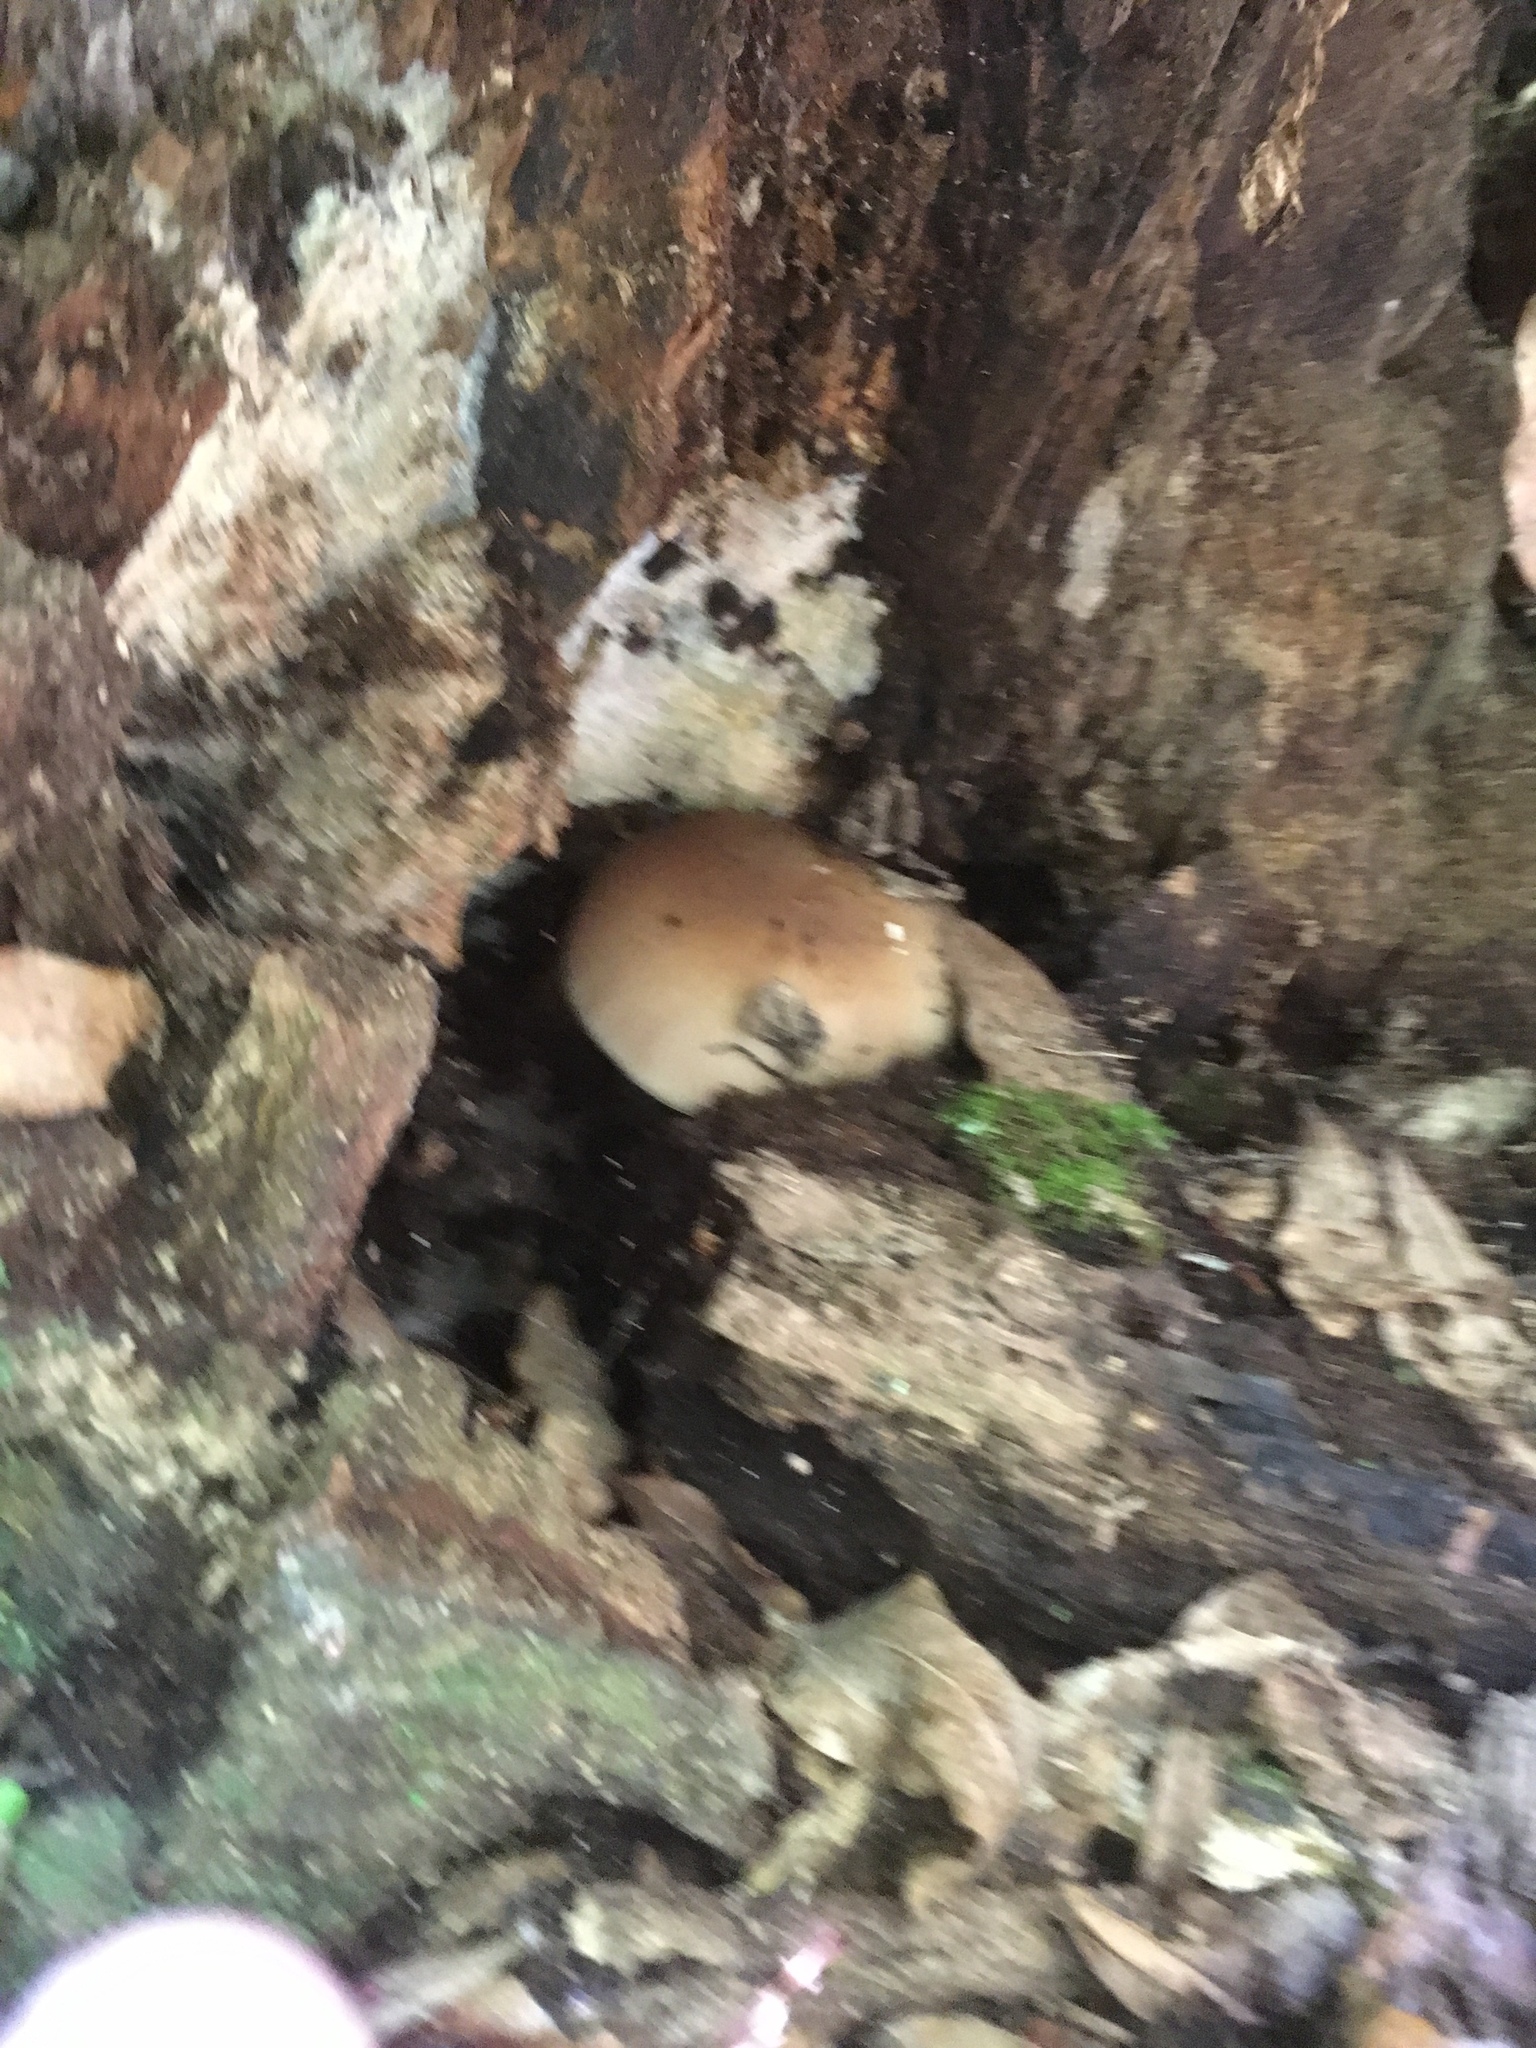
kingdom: Fungi
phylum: Basidiomycota
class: Agaricomycetes
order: Agaricales
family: Tubariaceae
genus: Cyclocybe
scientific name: Cyclocybe parasitica
